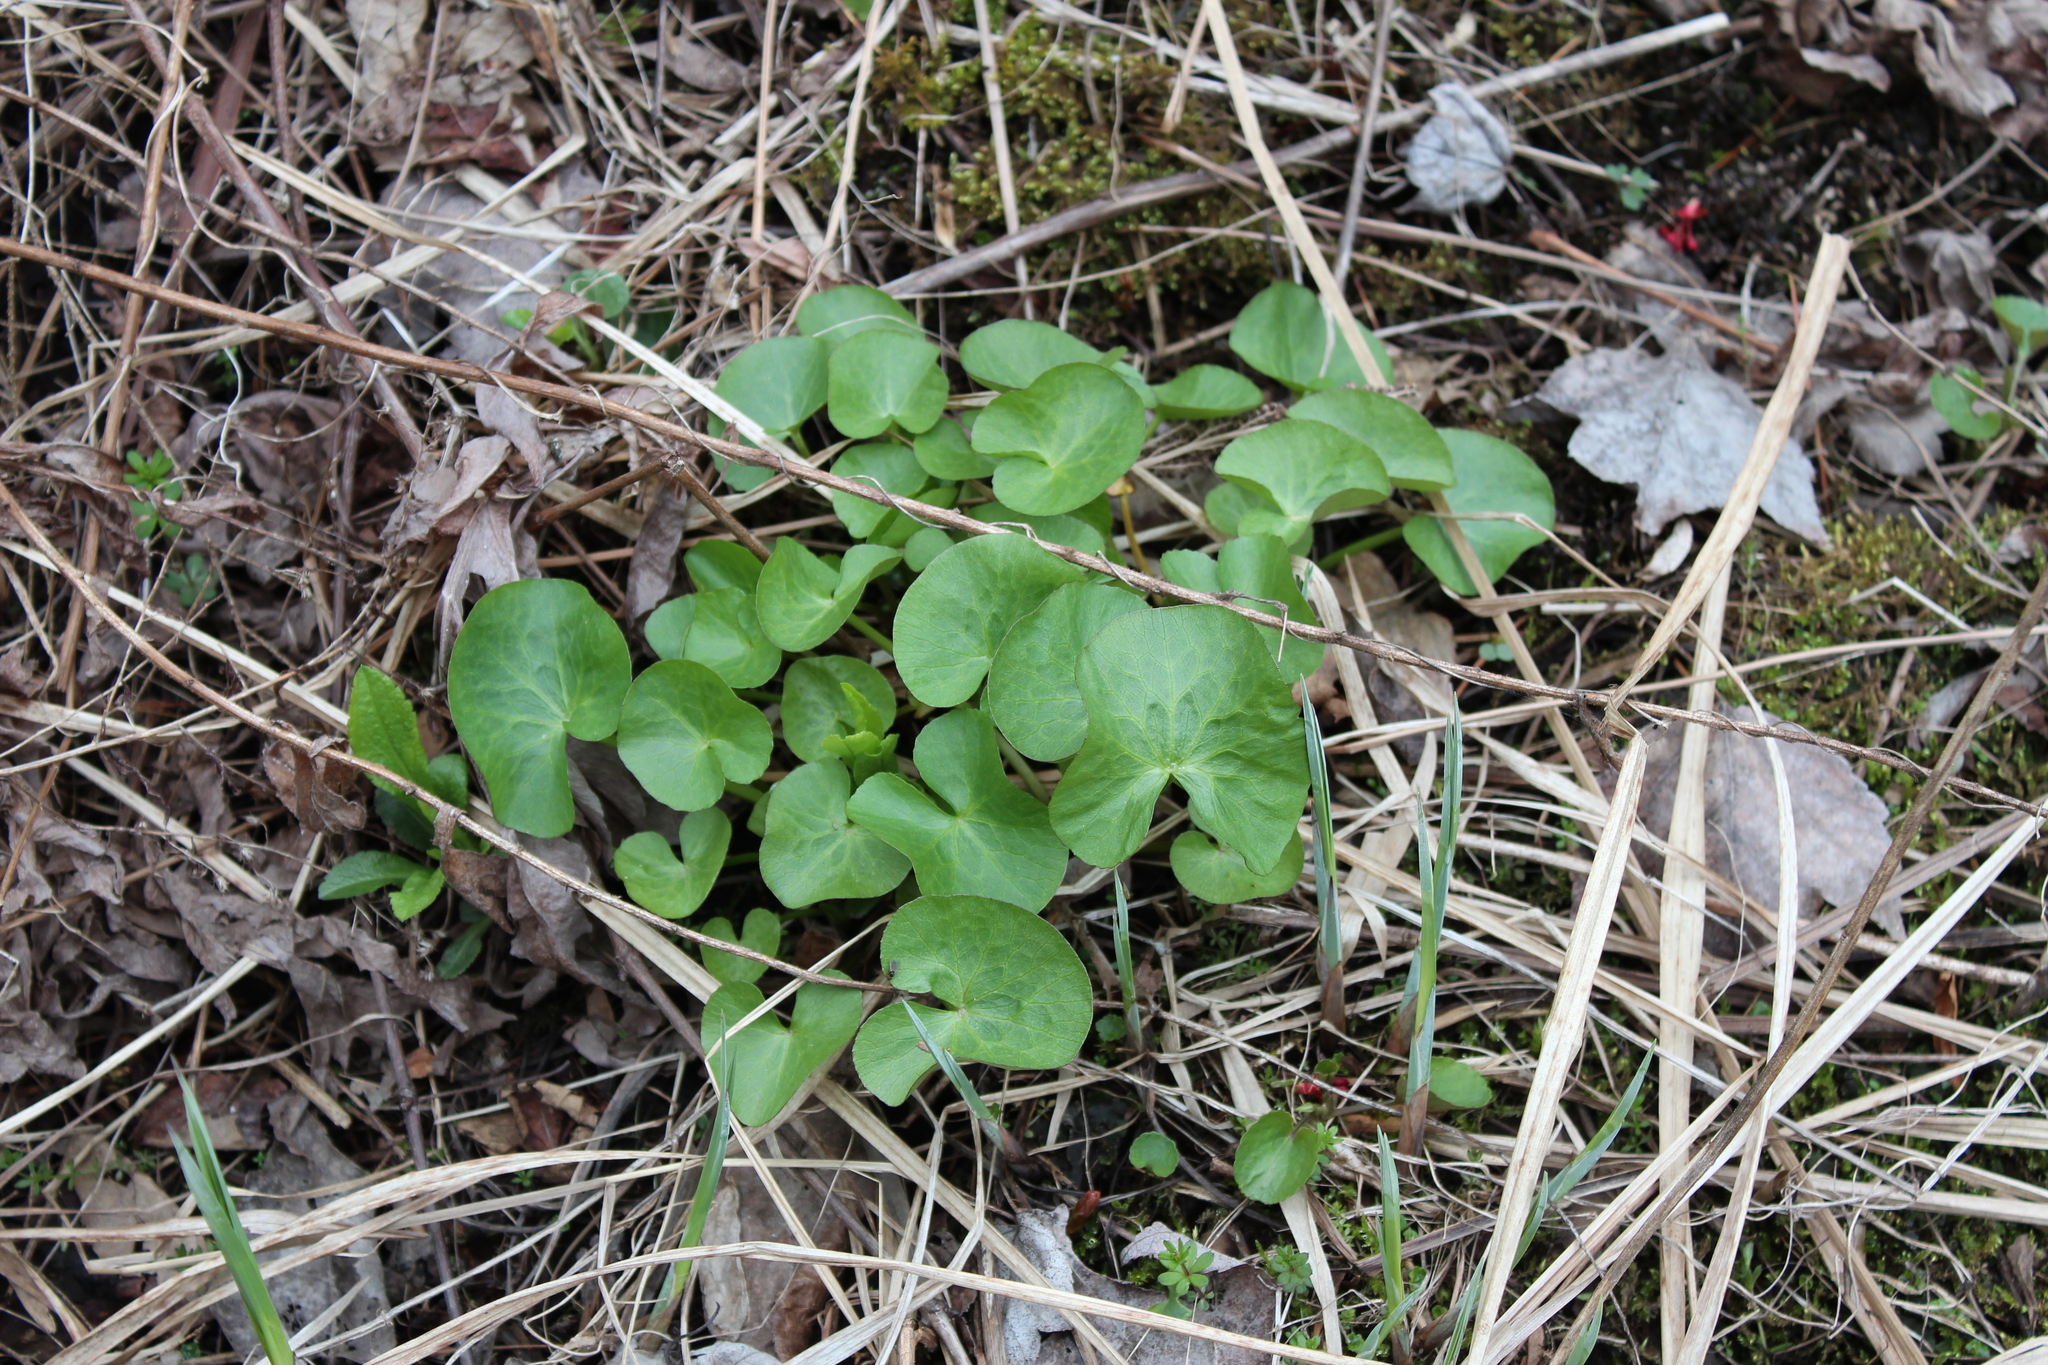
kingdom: Plantae
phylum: Tracheophyta
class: Magnoliopsida
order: Ranunculales
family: Ranunculaceae
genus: Caltha
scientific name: Caltha palustris
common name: Marsh marigold
